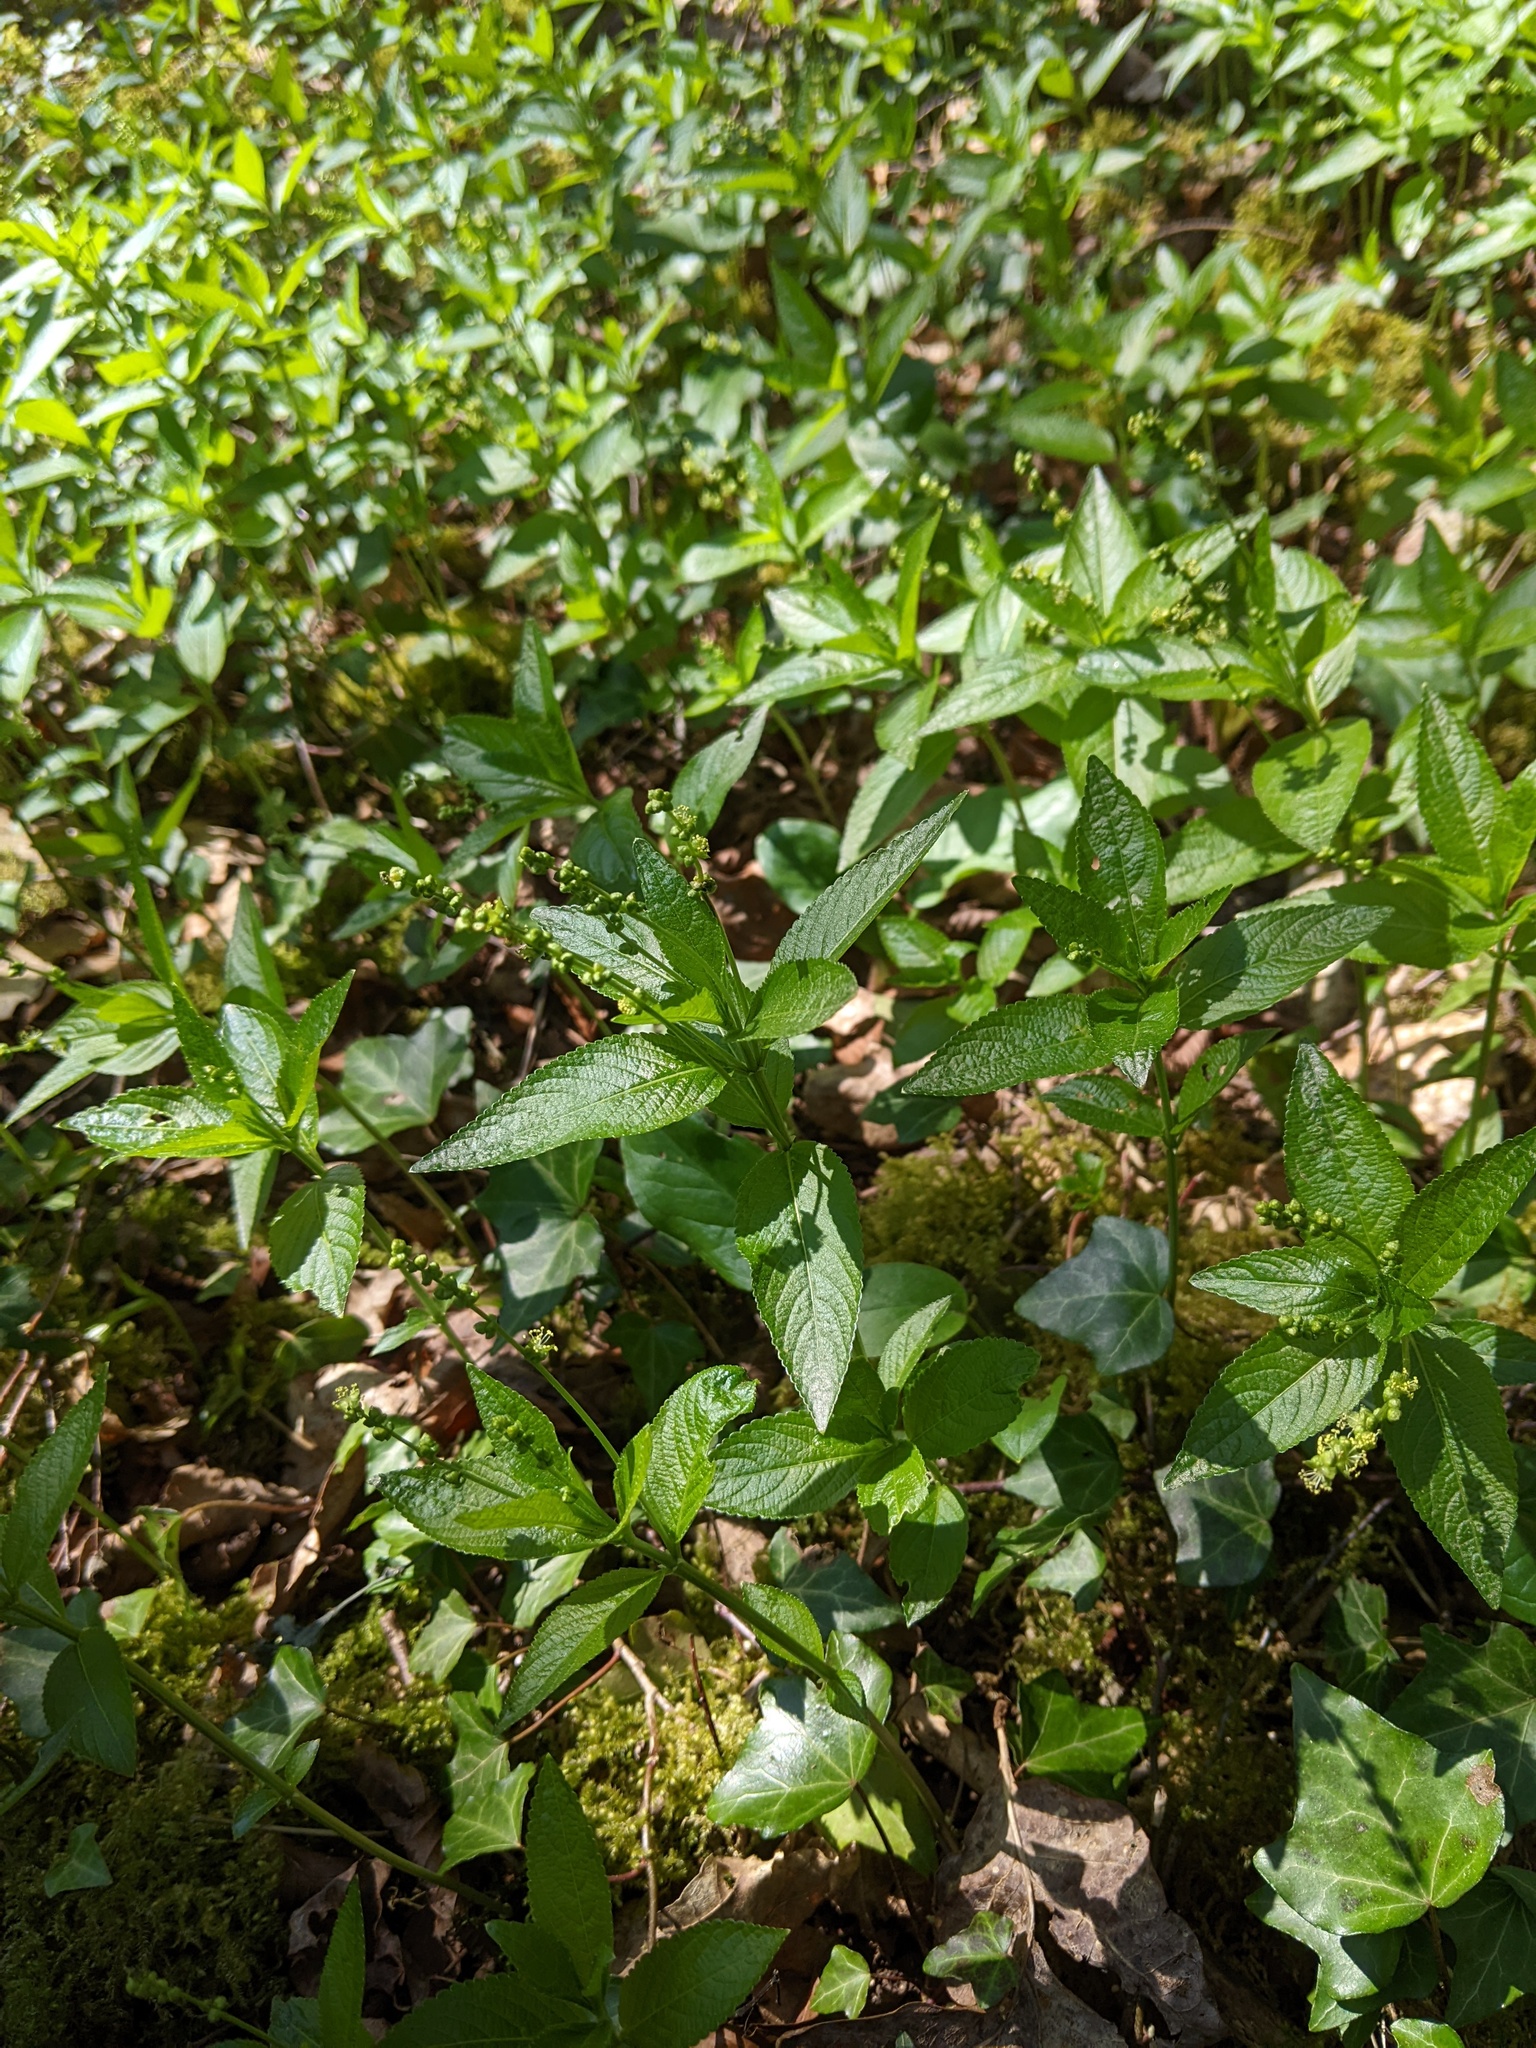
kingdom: Plantae
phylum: Tracheophyta
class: Magnoliopsida
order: Malpighiales
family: Euphorbiaceae
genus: Mercurialis
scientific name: Mercurialis perennis
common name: Dog mercury
